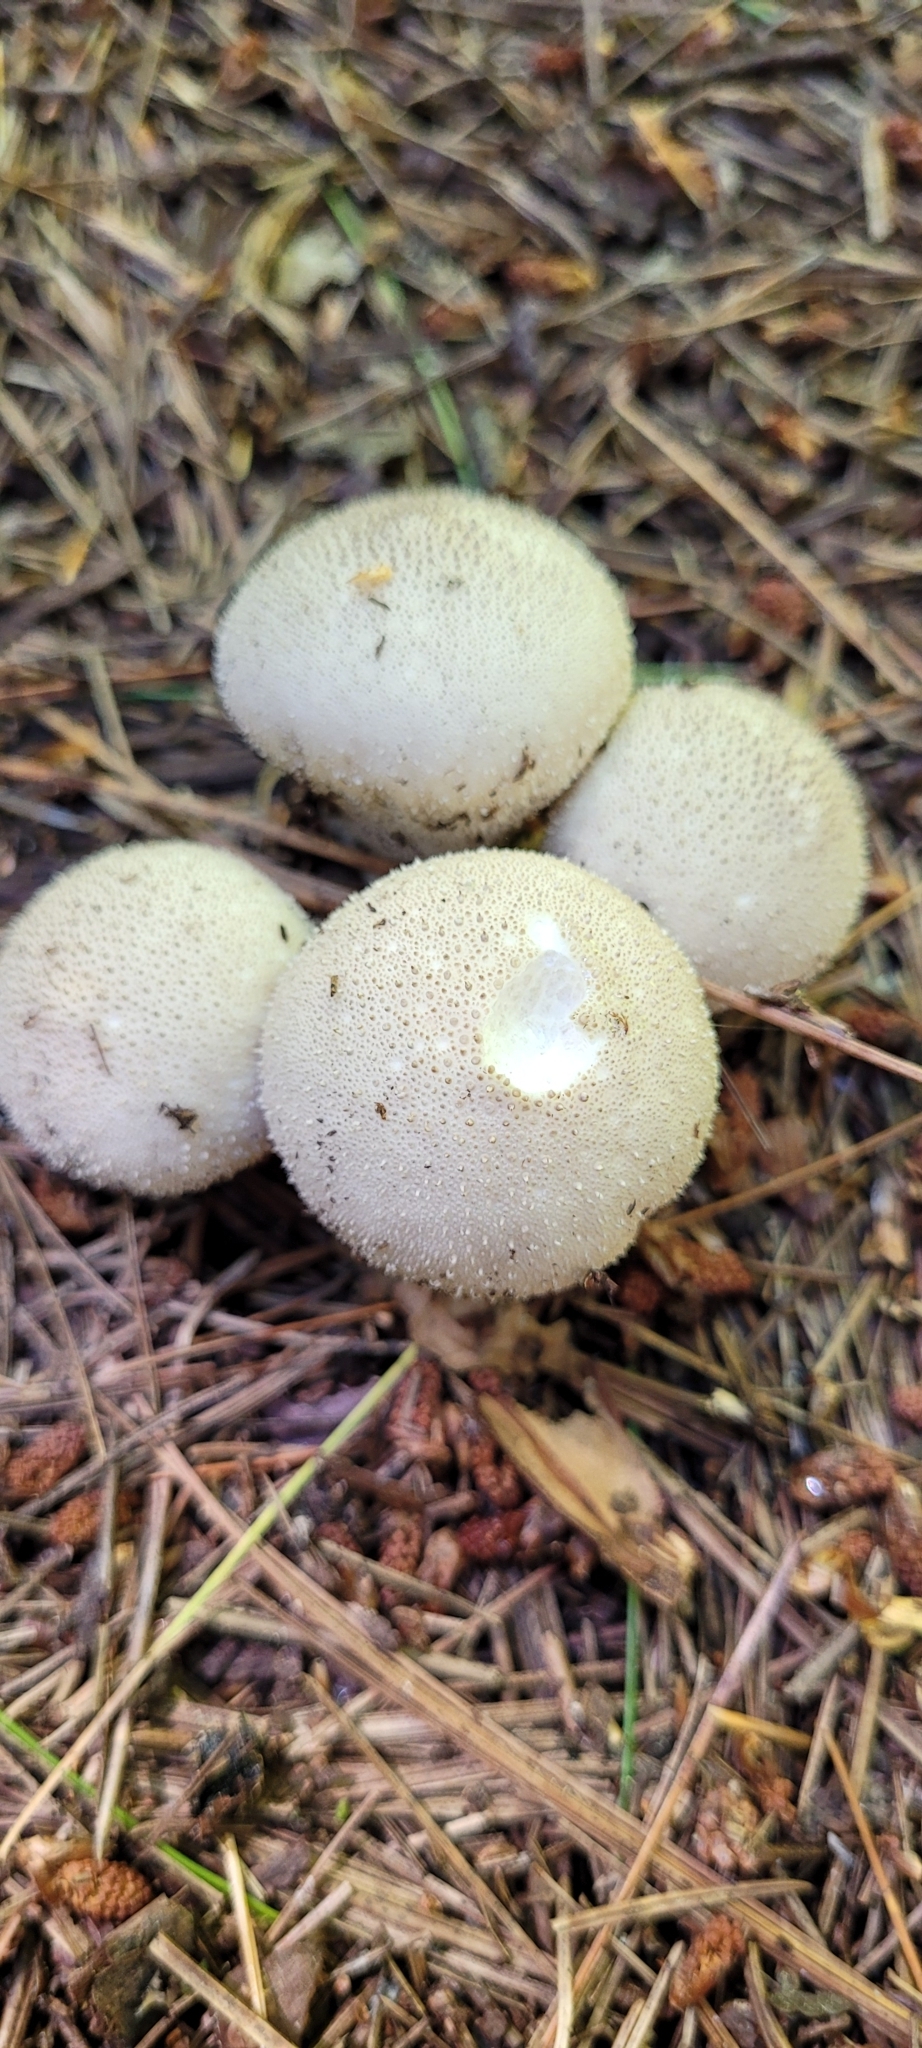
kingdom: Fungi
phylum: Basidiomycota
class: Agaricomycetes
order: Agaricales
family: Lycoperdaceae
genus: Lycoperdon
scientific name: Lycoperdon perlatum
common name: Common puffball
